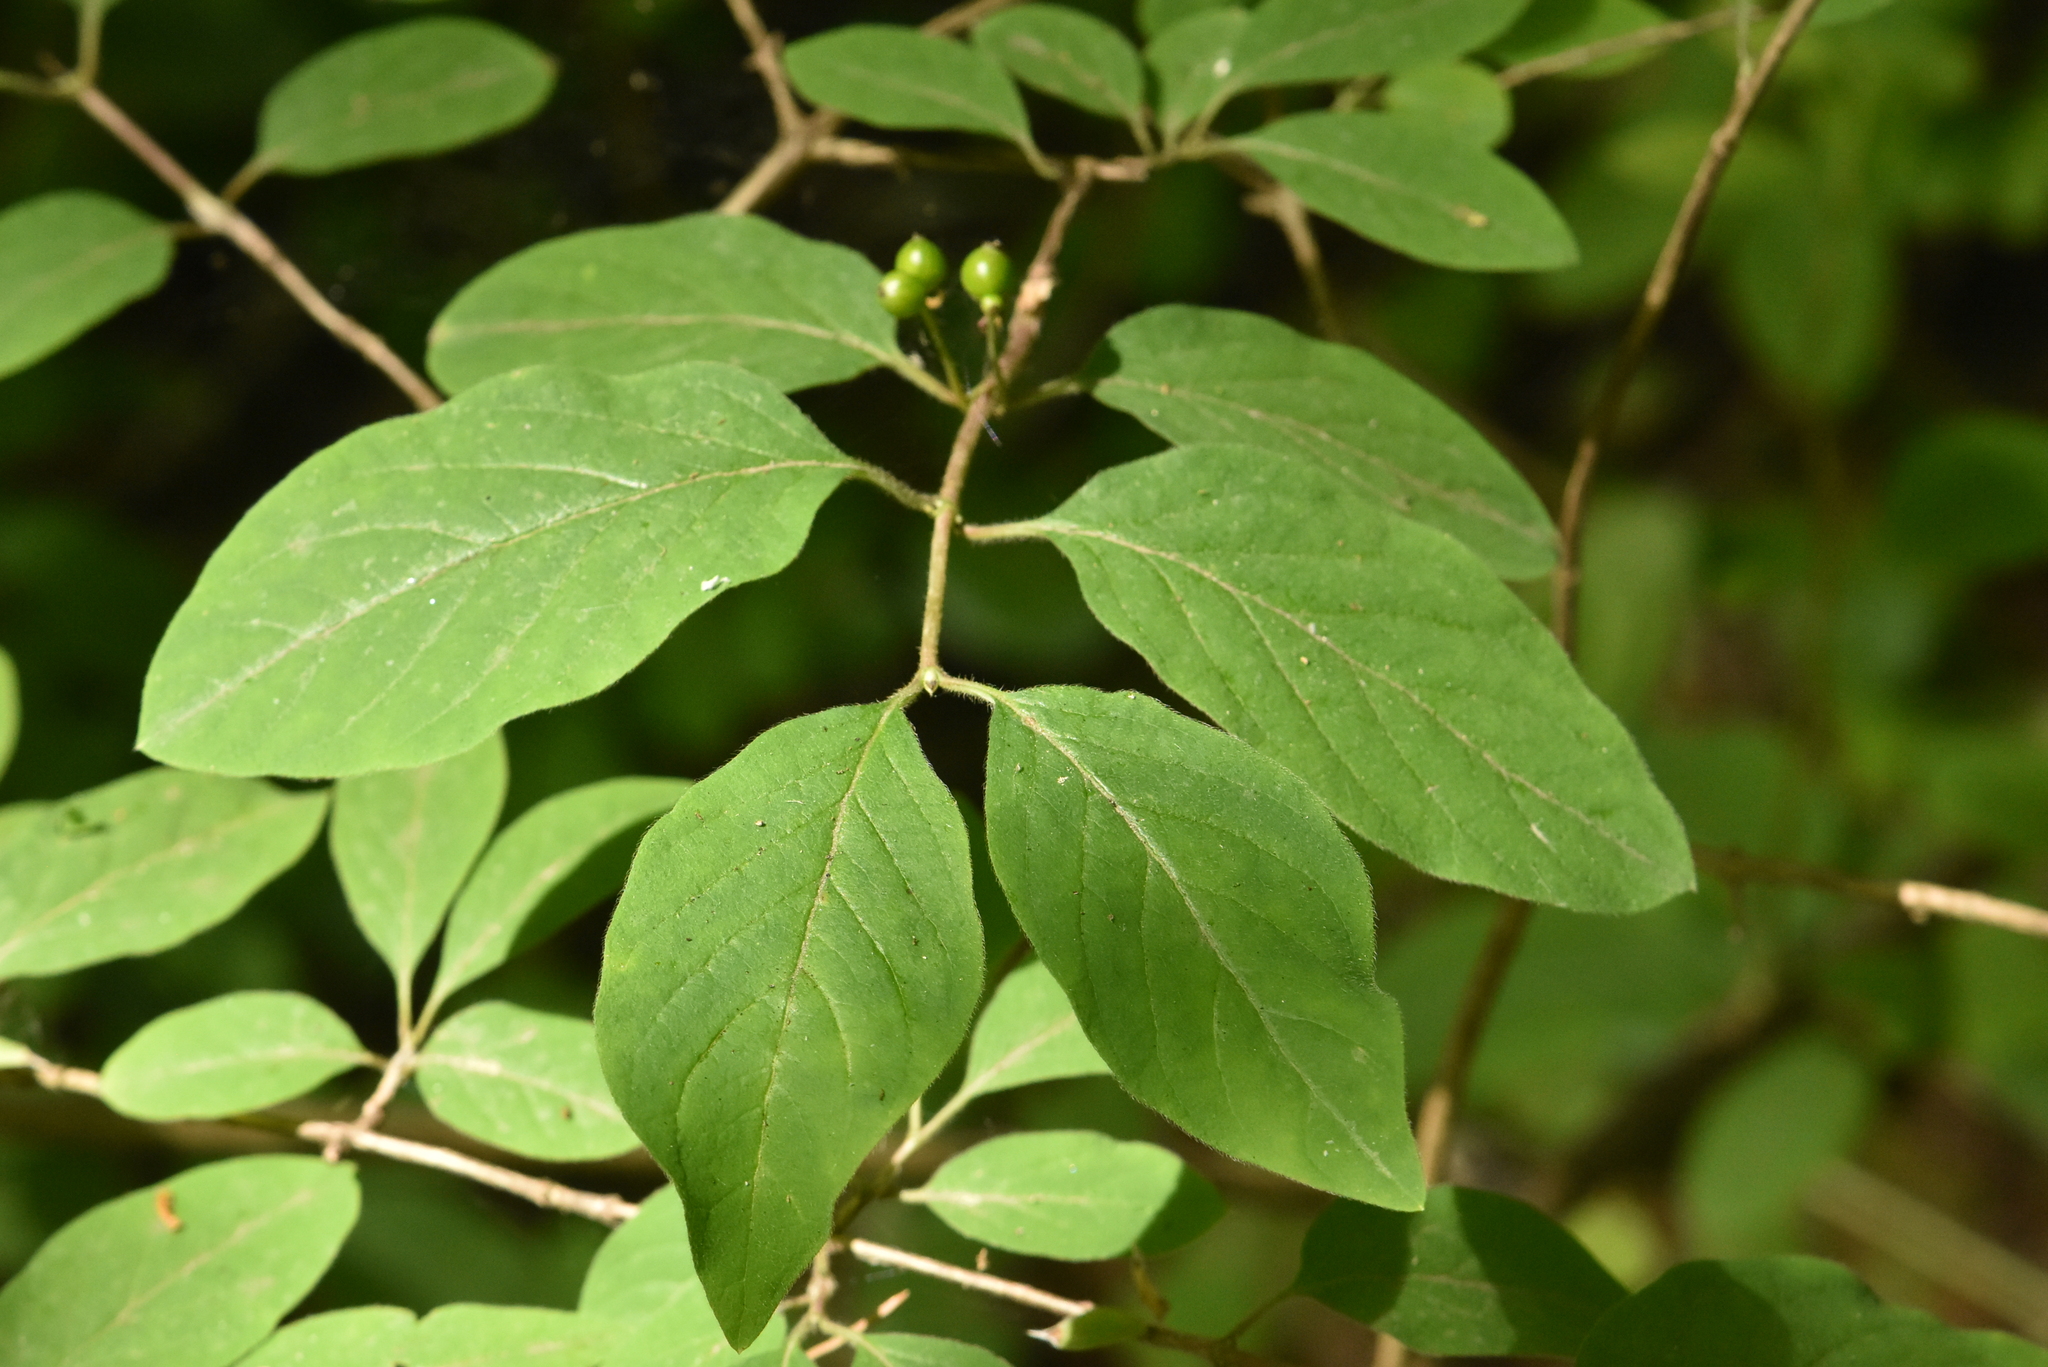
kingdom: Plantae
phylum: Tracheophyta
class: Magnoliopsida
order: Dipsacales
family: Caprifoliaceae
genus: Lonicera
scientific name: Lonicera xylosteum
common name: Fly honeysuckle
